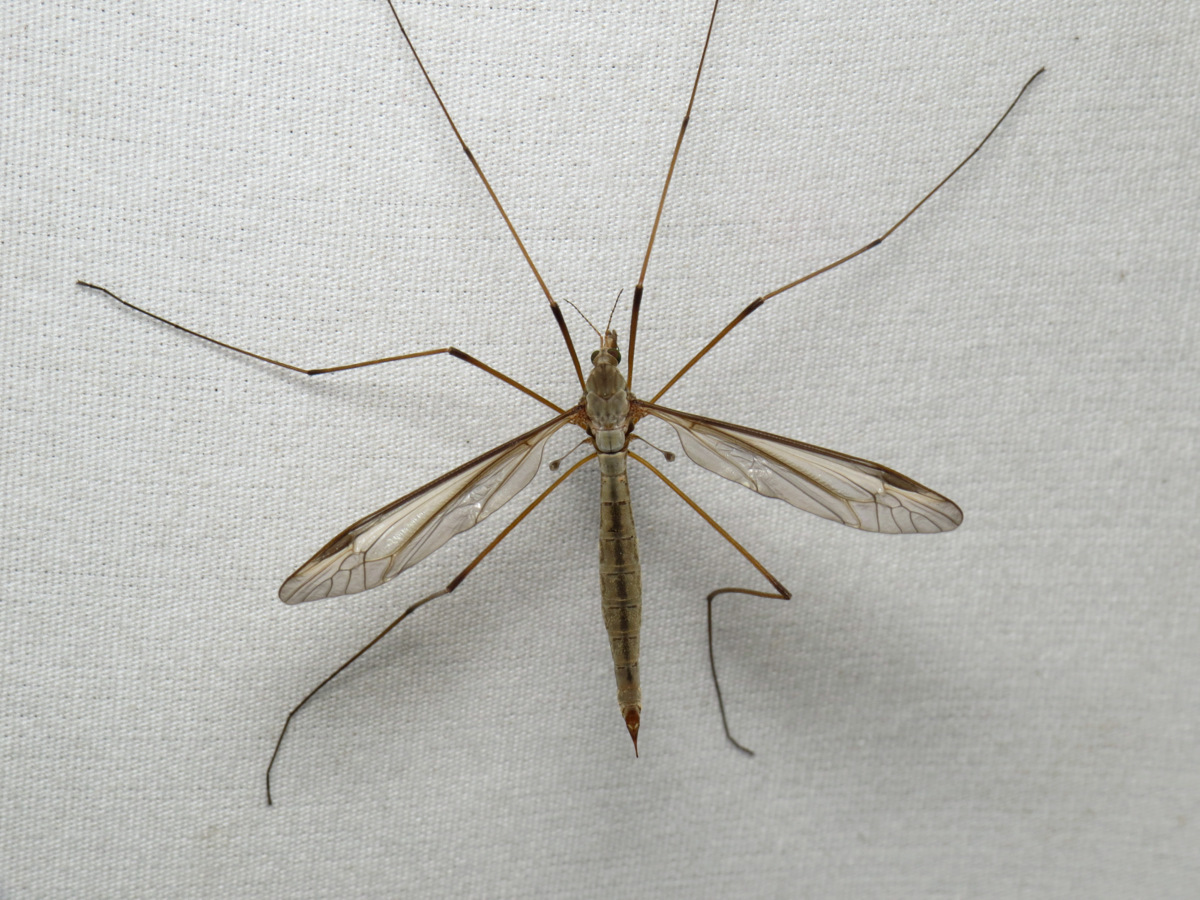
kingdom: Animalia
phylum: Arthropoda
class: Insecta
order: Diptera
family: Tipulidae
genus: Tipula
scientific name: Tipula oleracea
